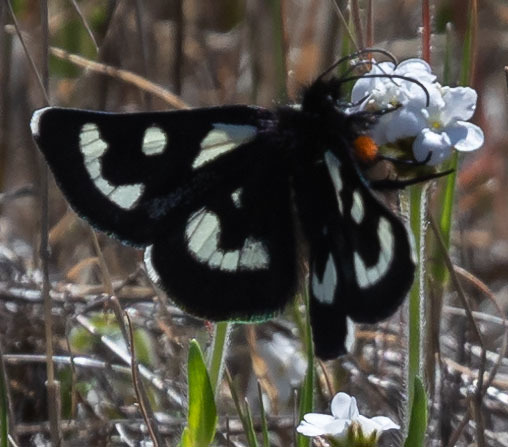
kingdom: Animalia
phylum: Arthropoda
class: Insecta
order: Lepidoptera
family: Noctuidae
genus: Alypia
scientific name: Alypia mariposa
